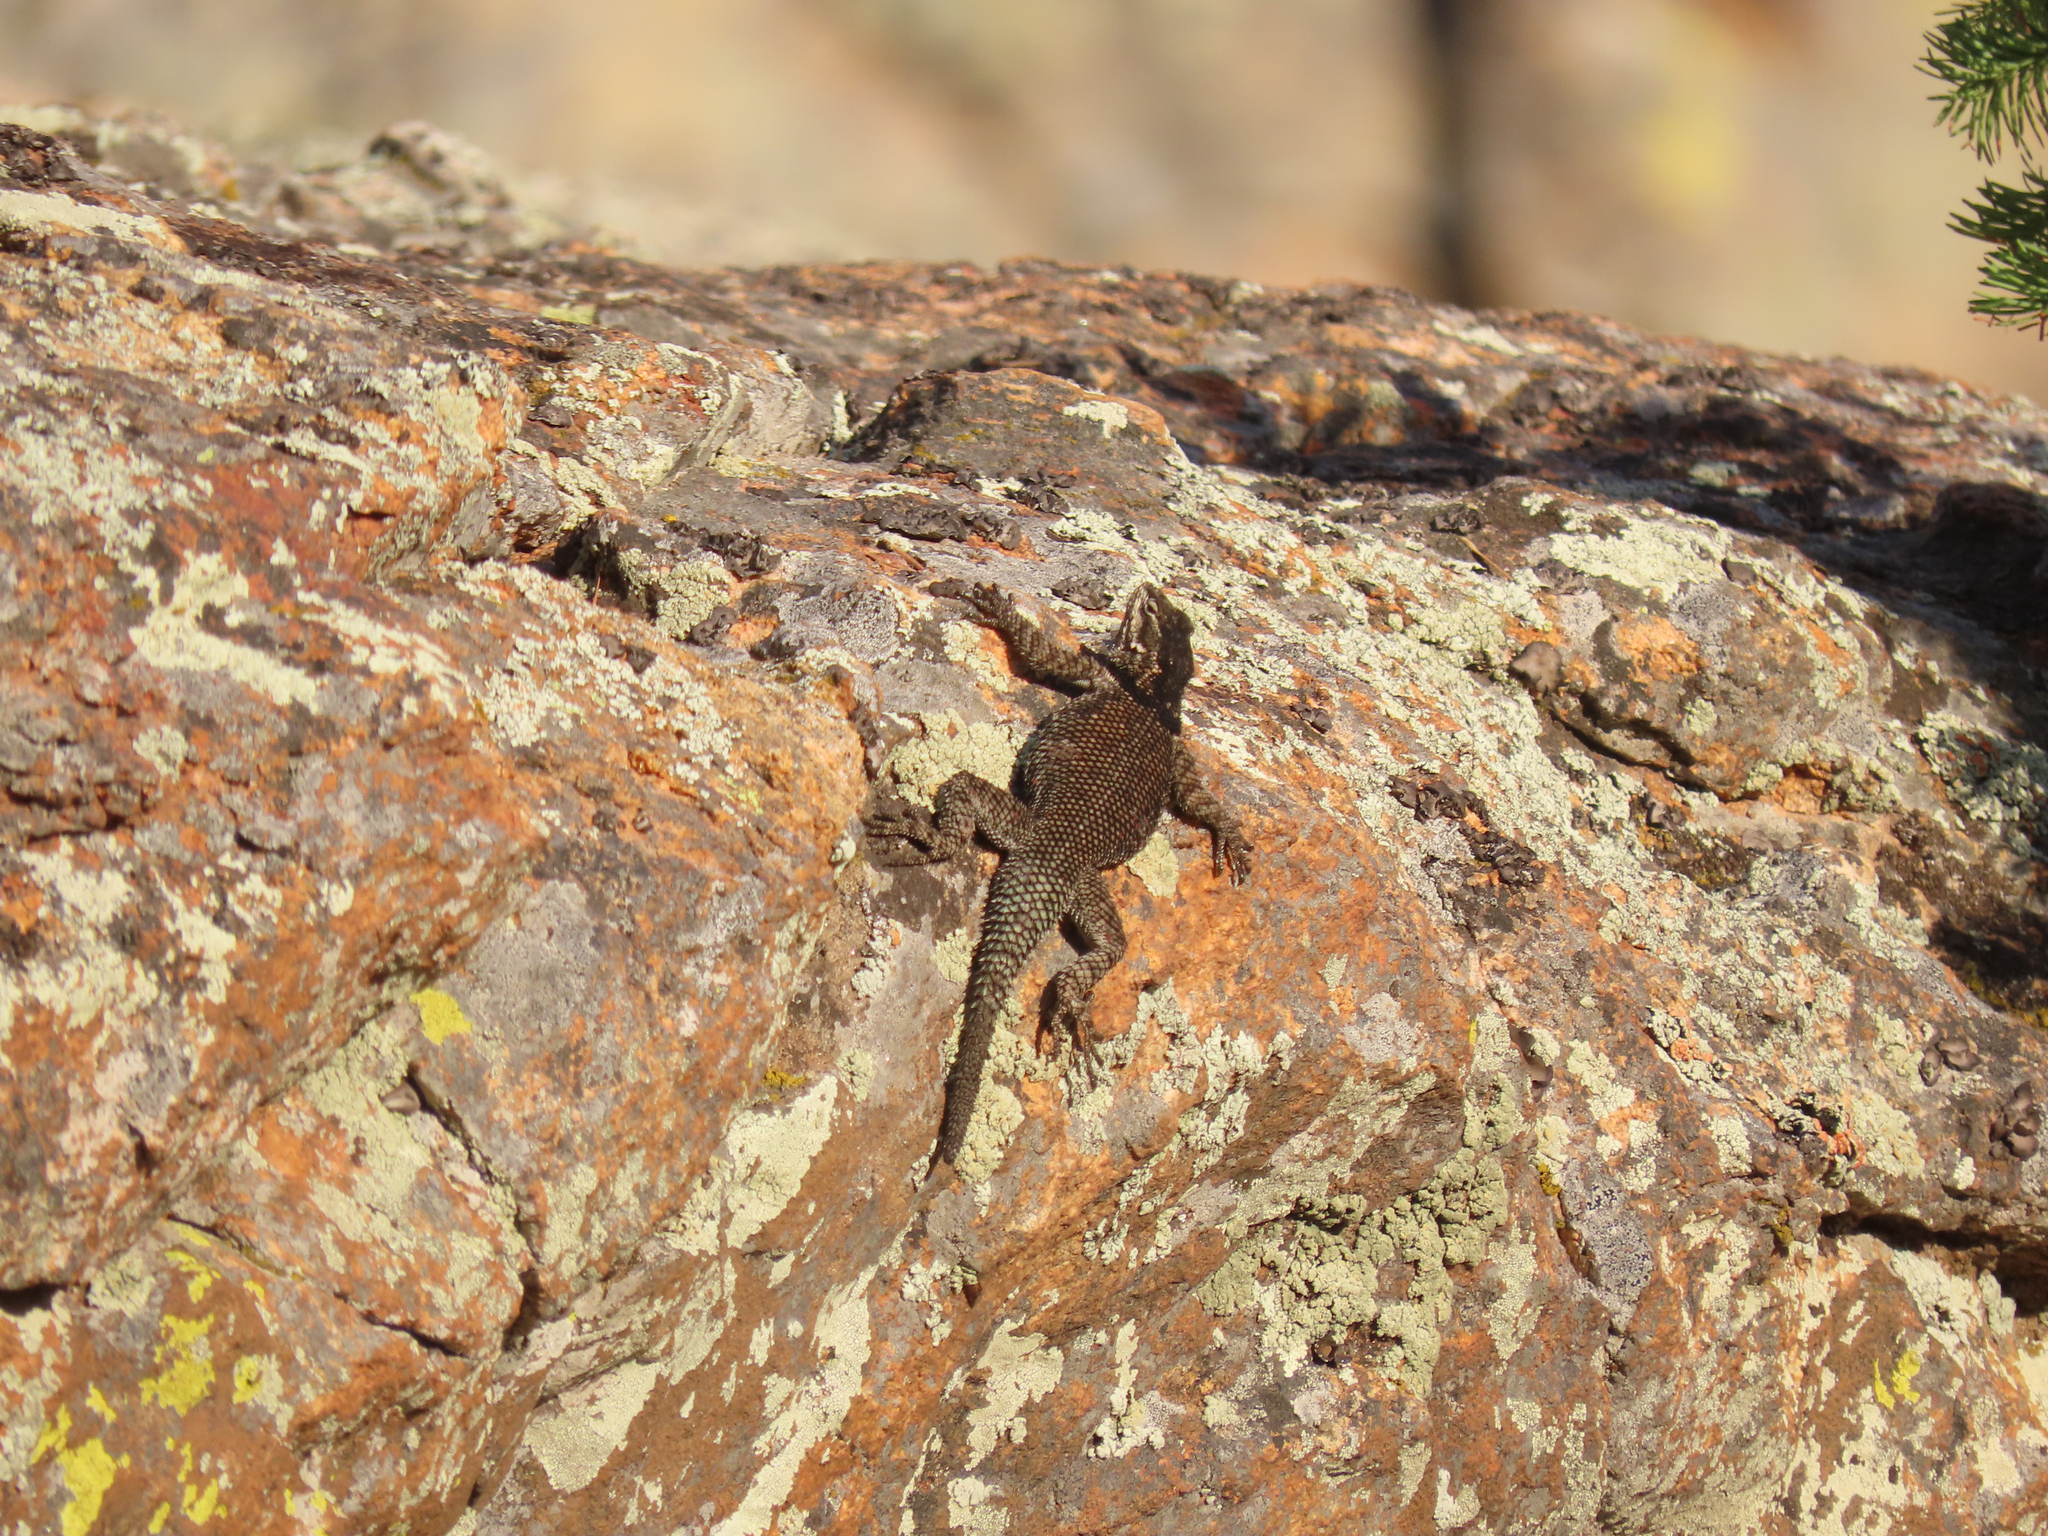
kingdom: Animalia
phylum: Chordata
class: Squamata
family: Phrynosomatidae
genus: Sceloporus
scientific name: Sceloporus jarrovii
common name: Yarrow's spiny lizard
